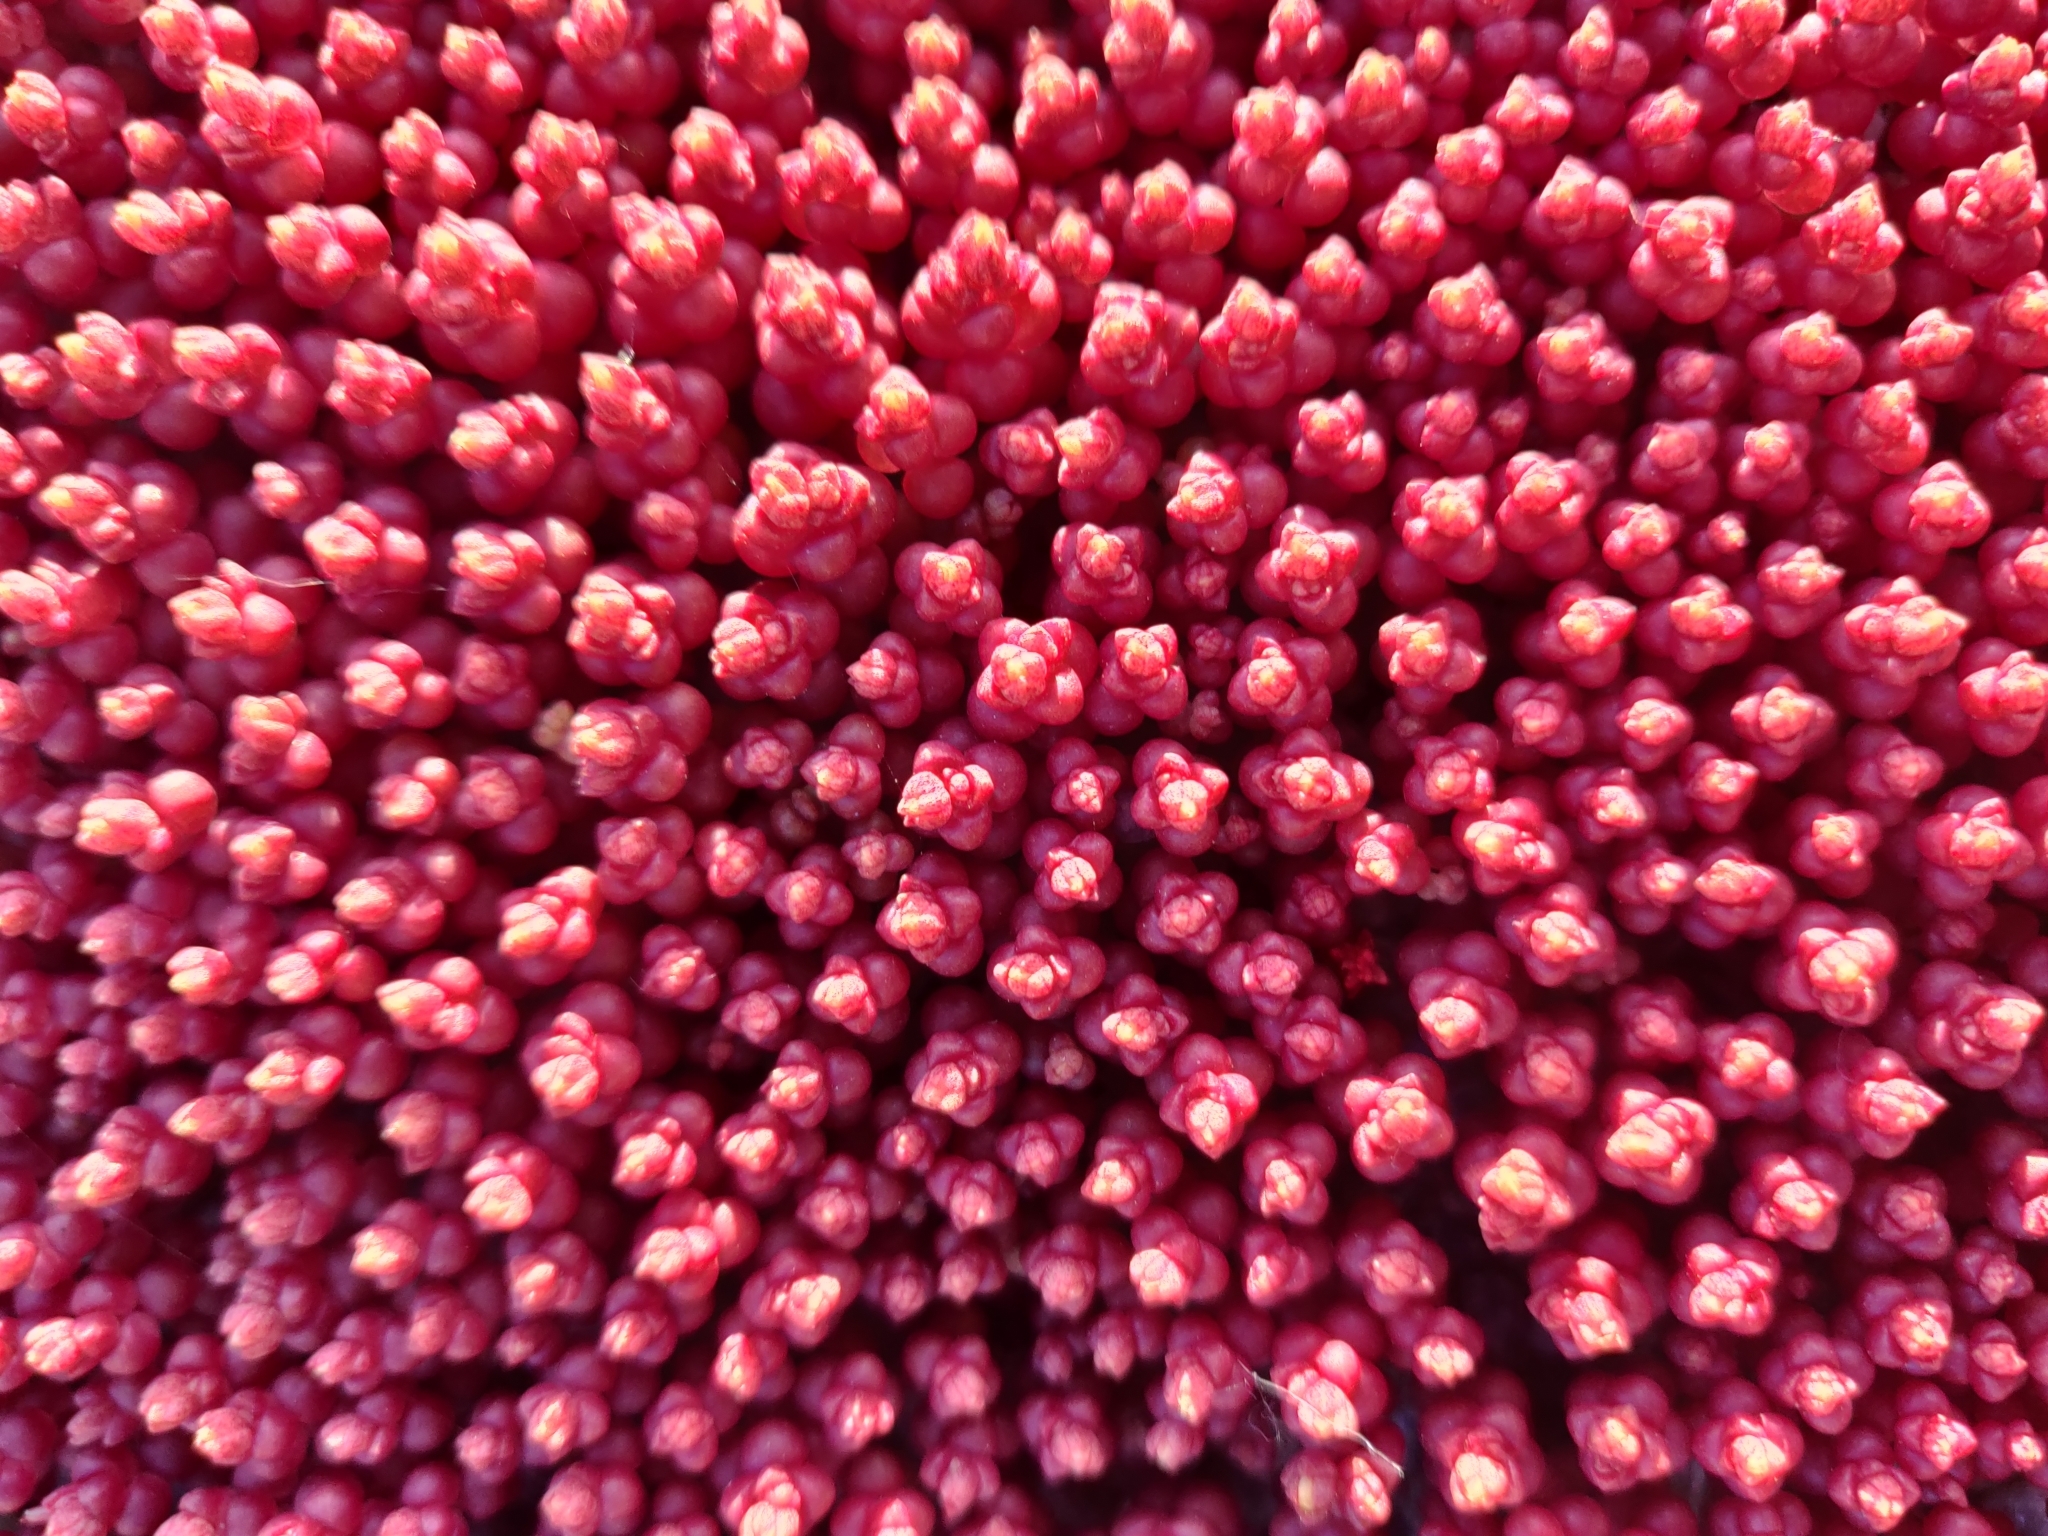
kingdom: Plantae
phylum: Tracheophyta
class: Magnoliopsida
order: Saxifragales
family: Crassulaceae
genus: Sedum
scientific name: Sedum andegavense
